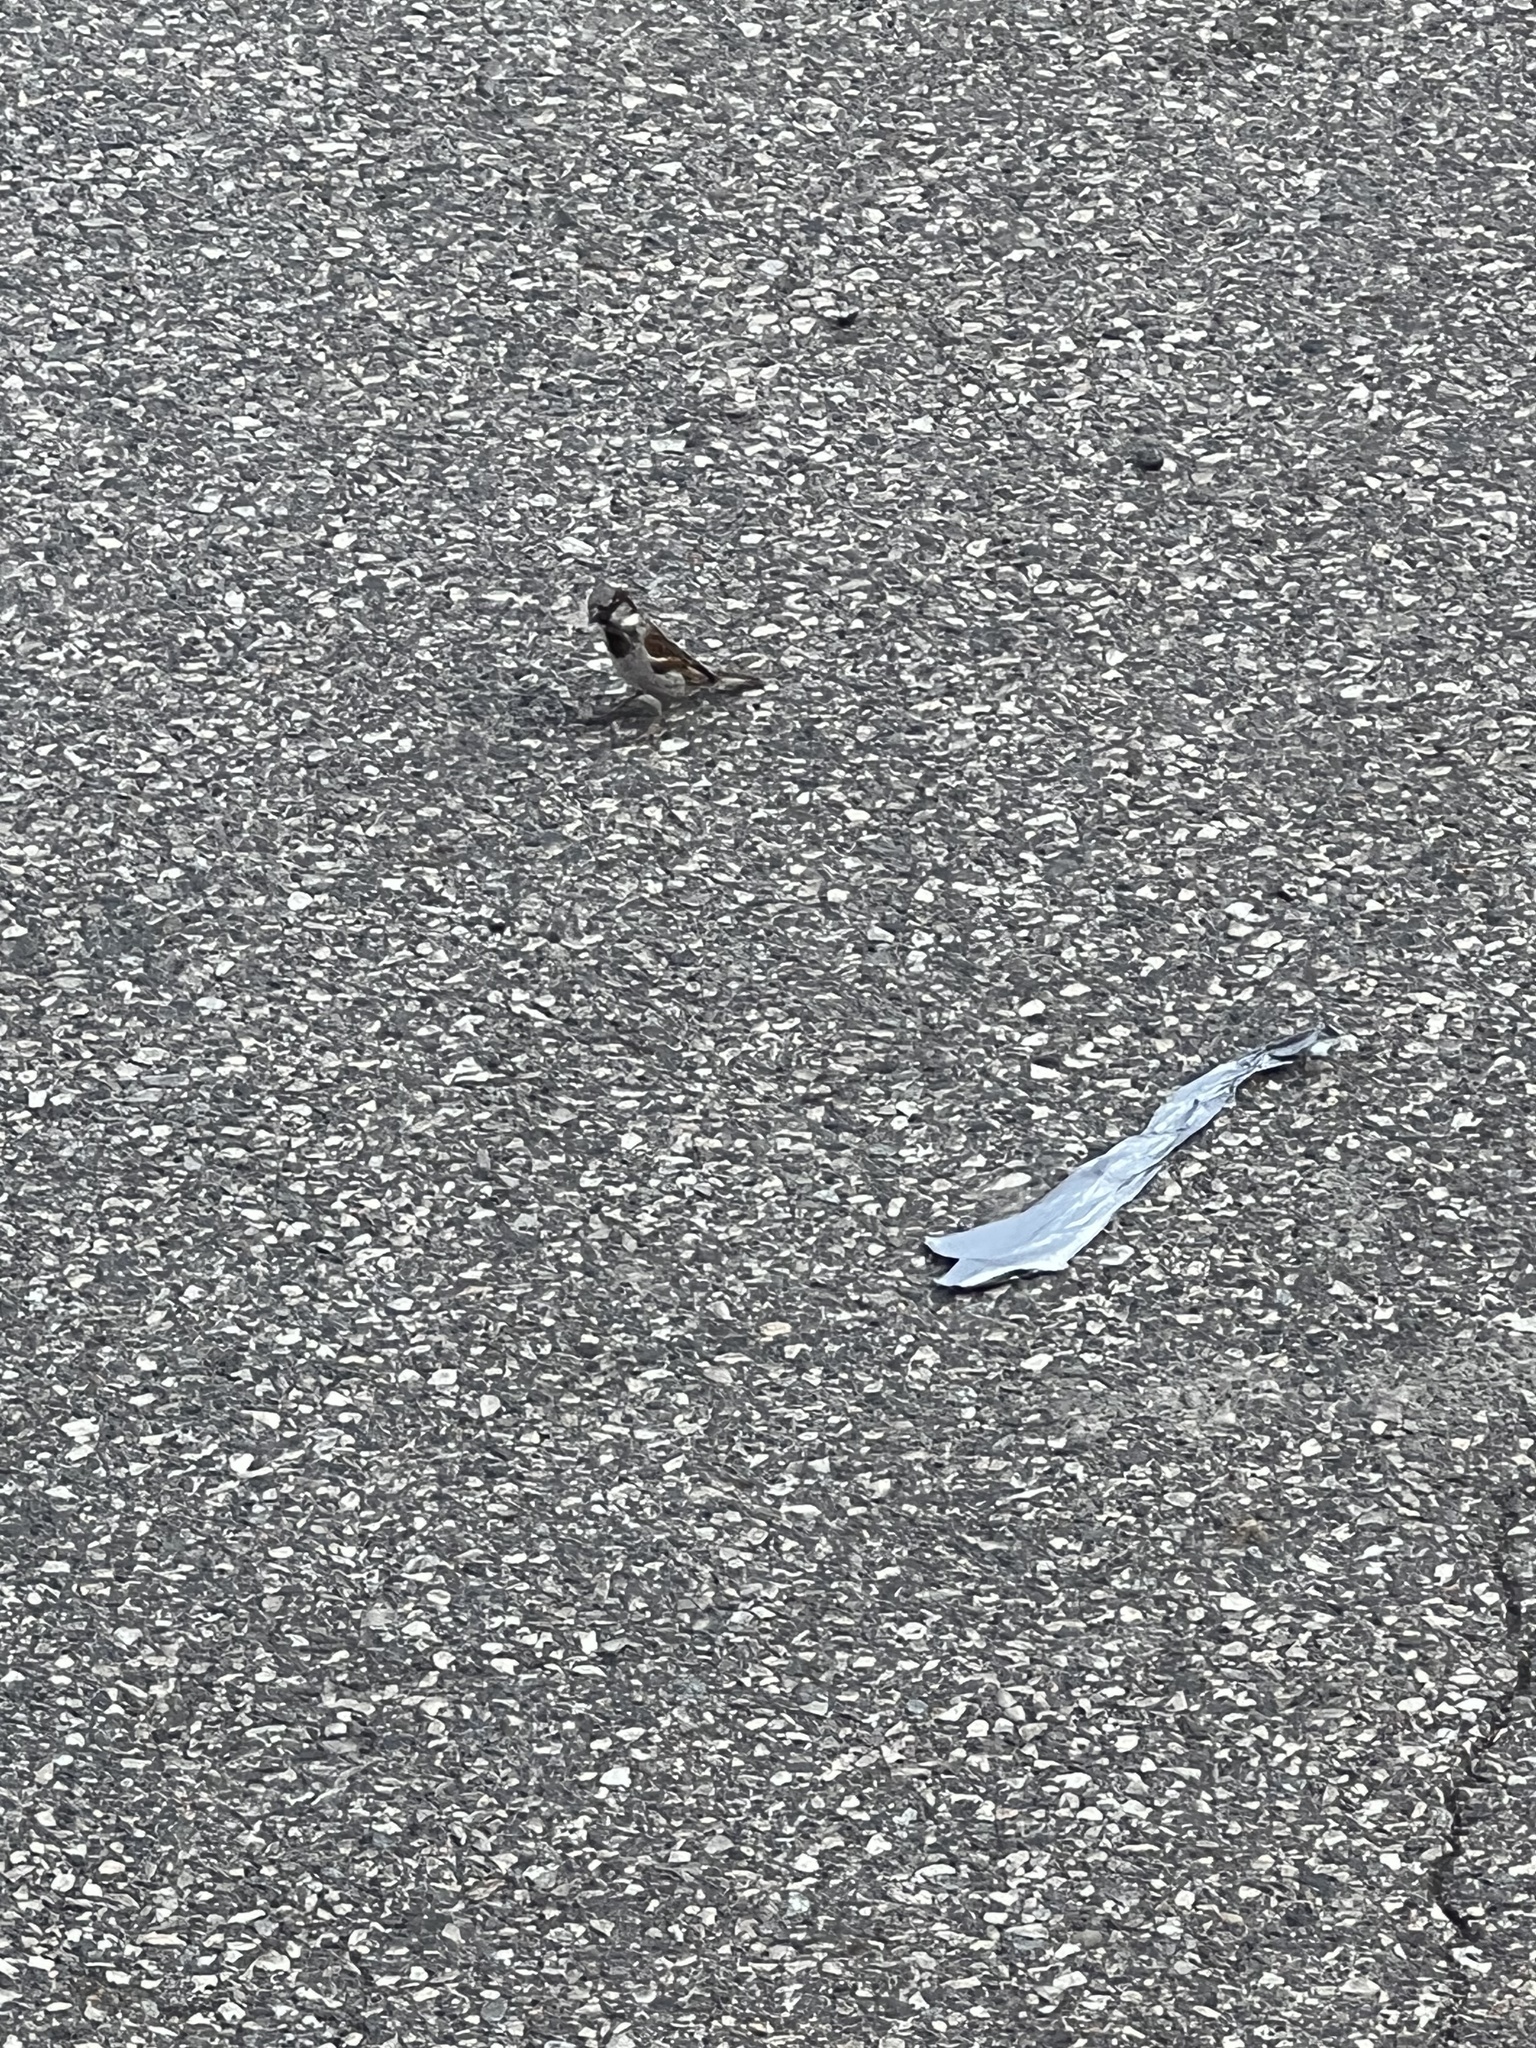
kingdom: Animalia
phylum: Chordata
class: Aves
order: Passeriformes
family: Passeridae
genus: Passer
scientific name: Passer domesticus
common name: House sparrow
